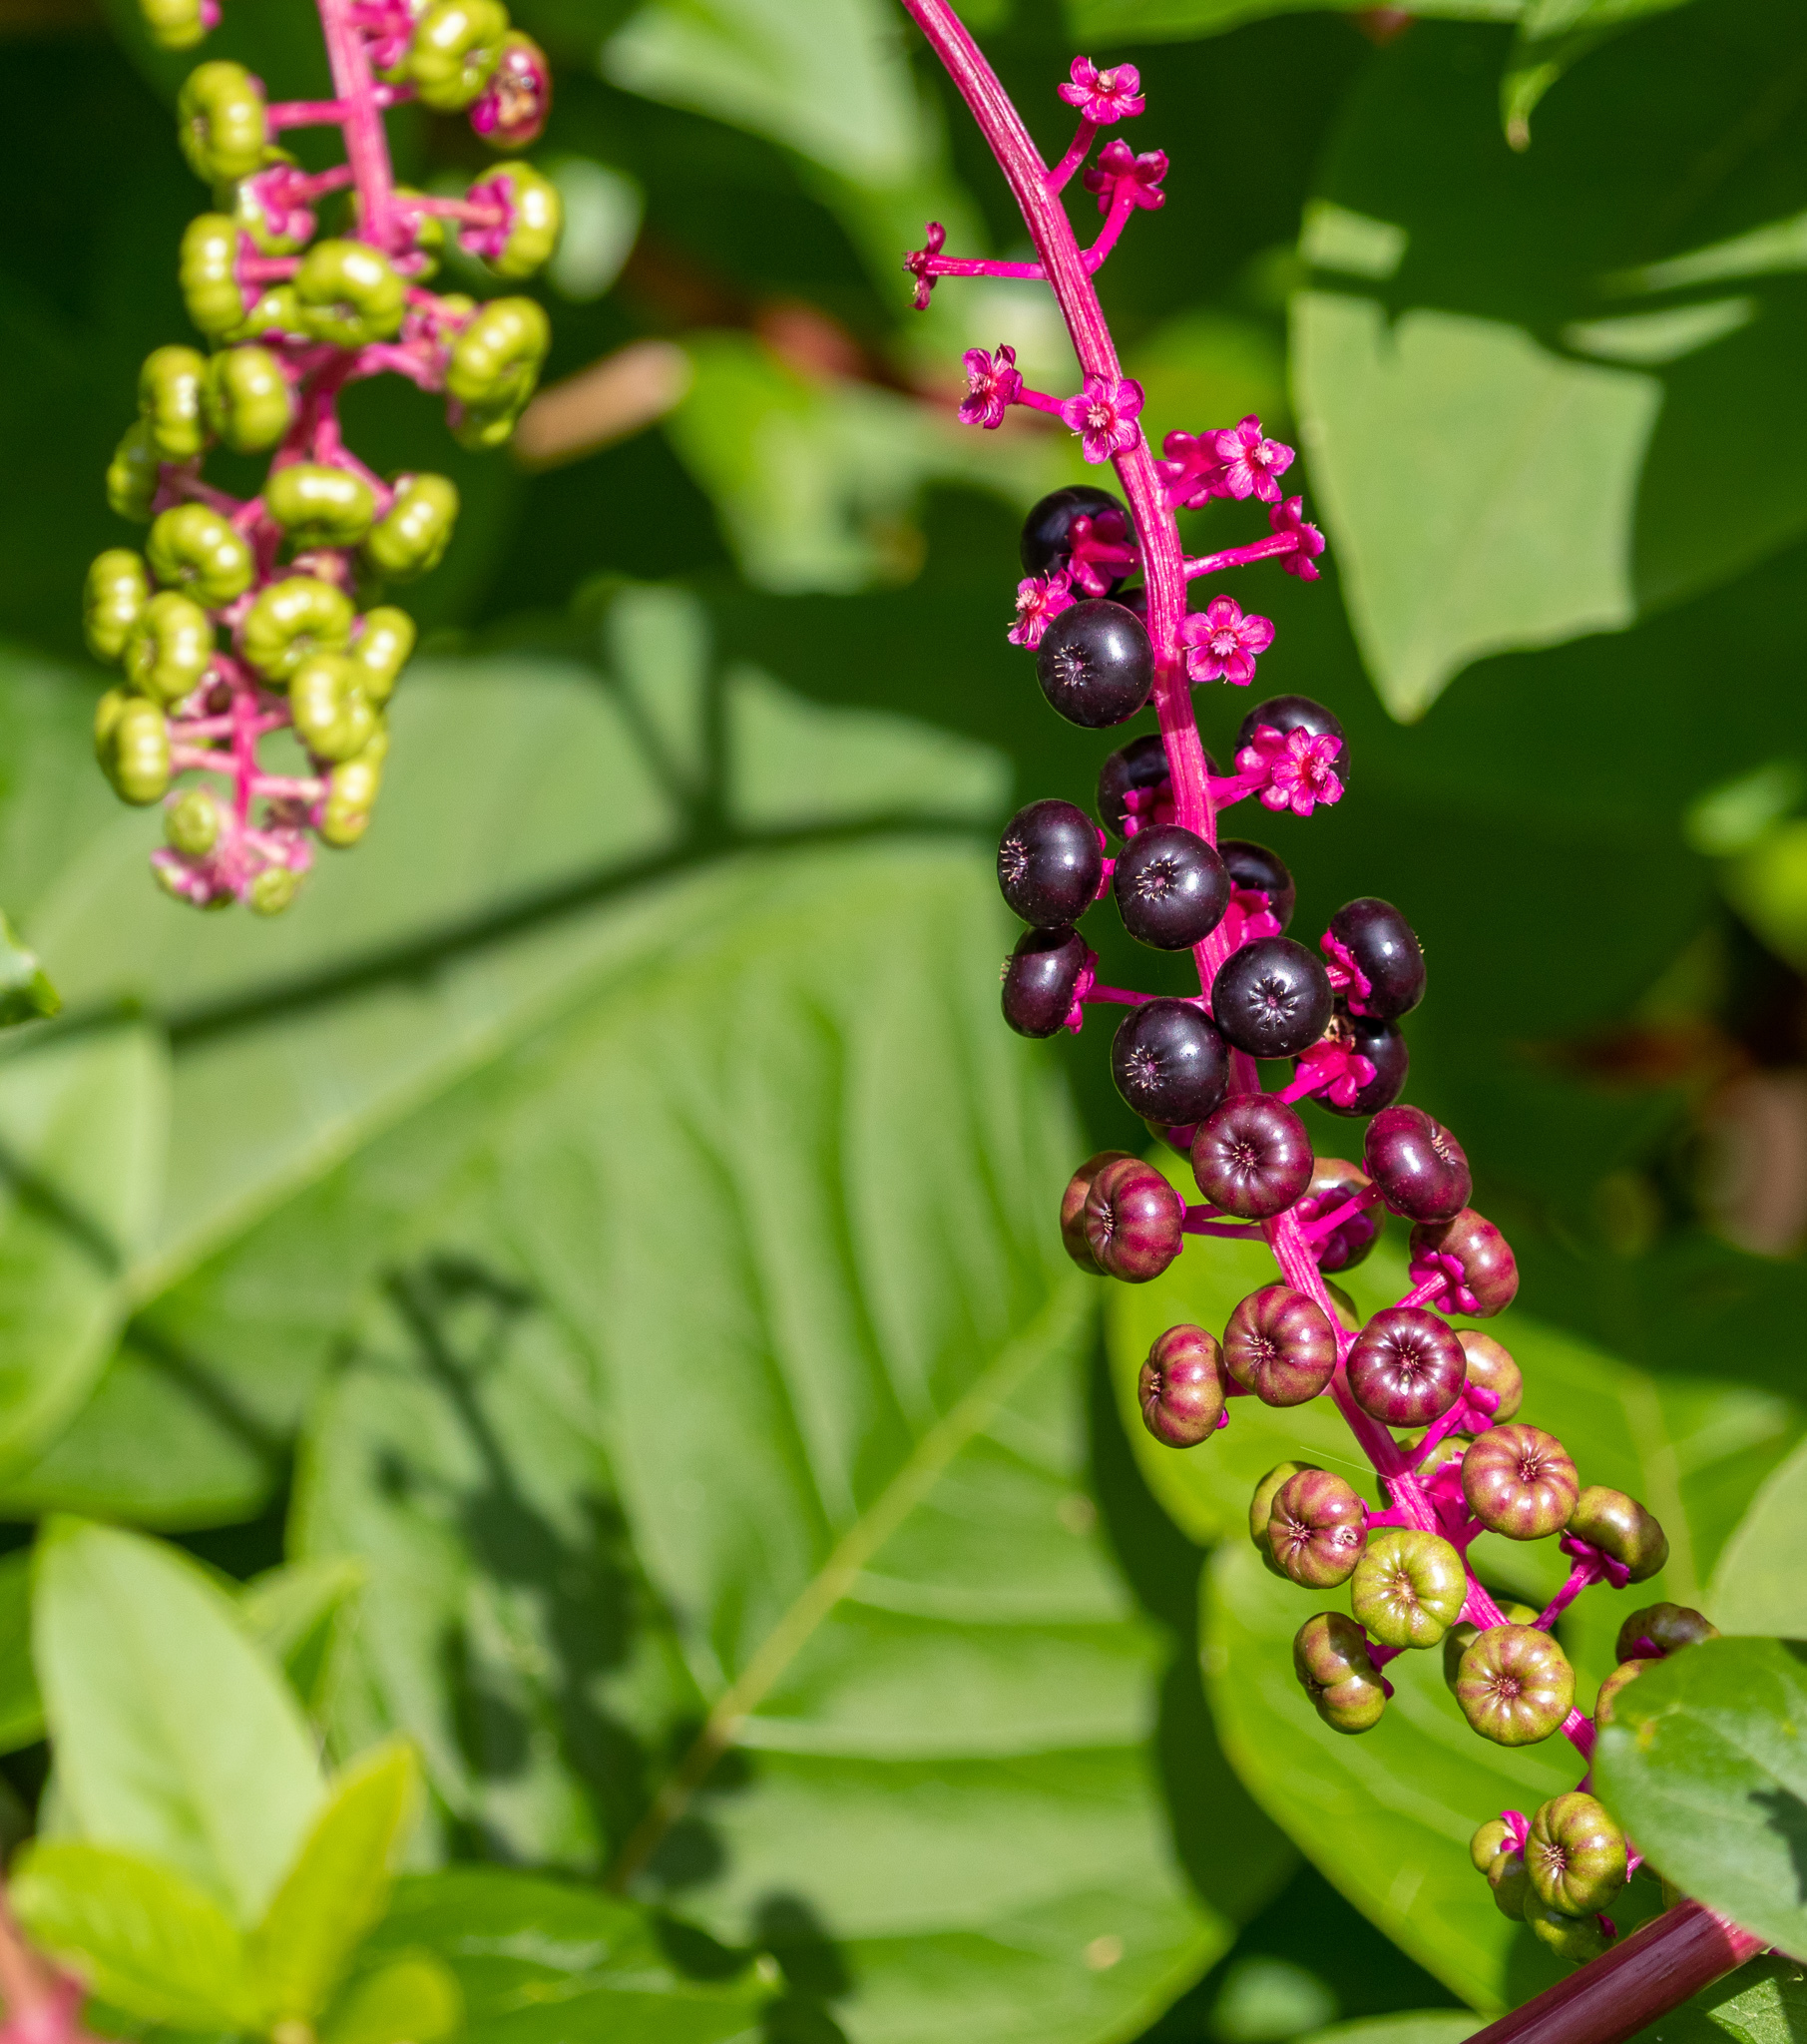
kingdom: Plantae
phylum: Tracheophyta
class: Magnoliopsida
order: Caryophyllales
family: Phytolaccaceae
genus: Phytolacca
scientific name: Phytolacca americana
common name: American pokeweed
